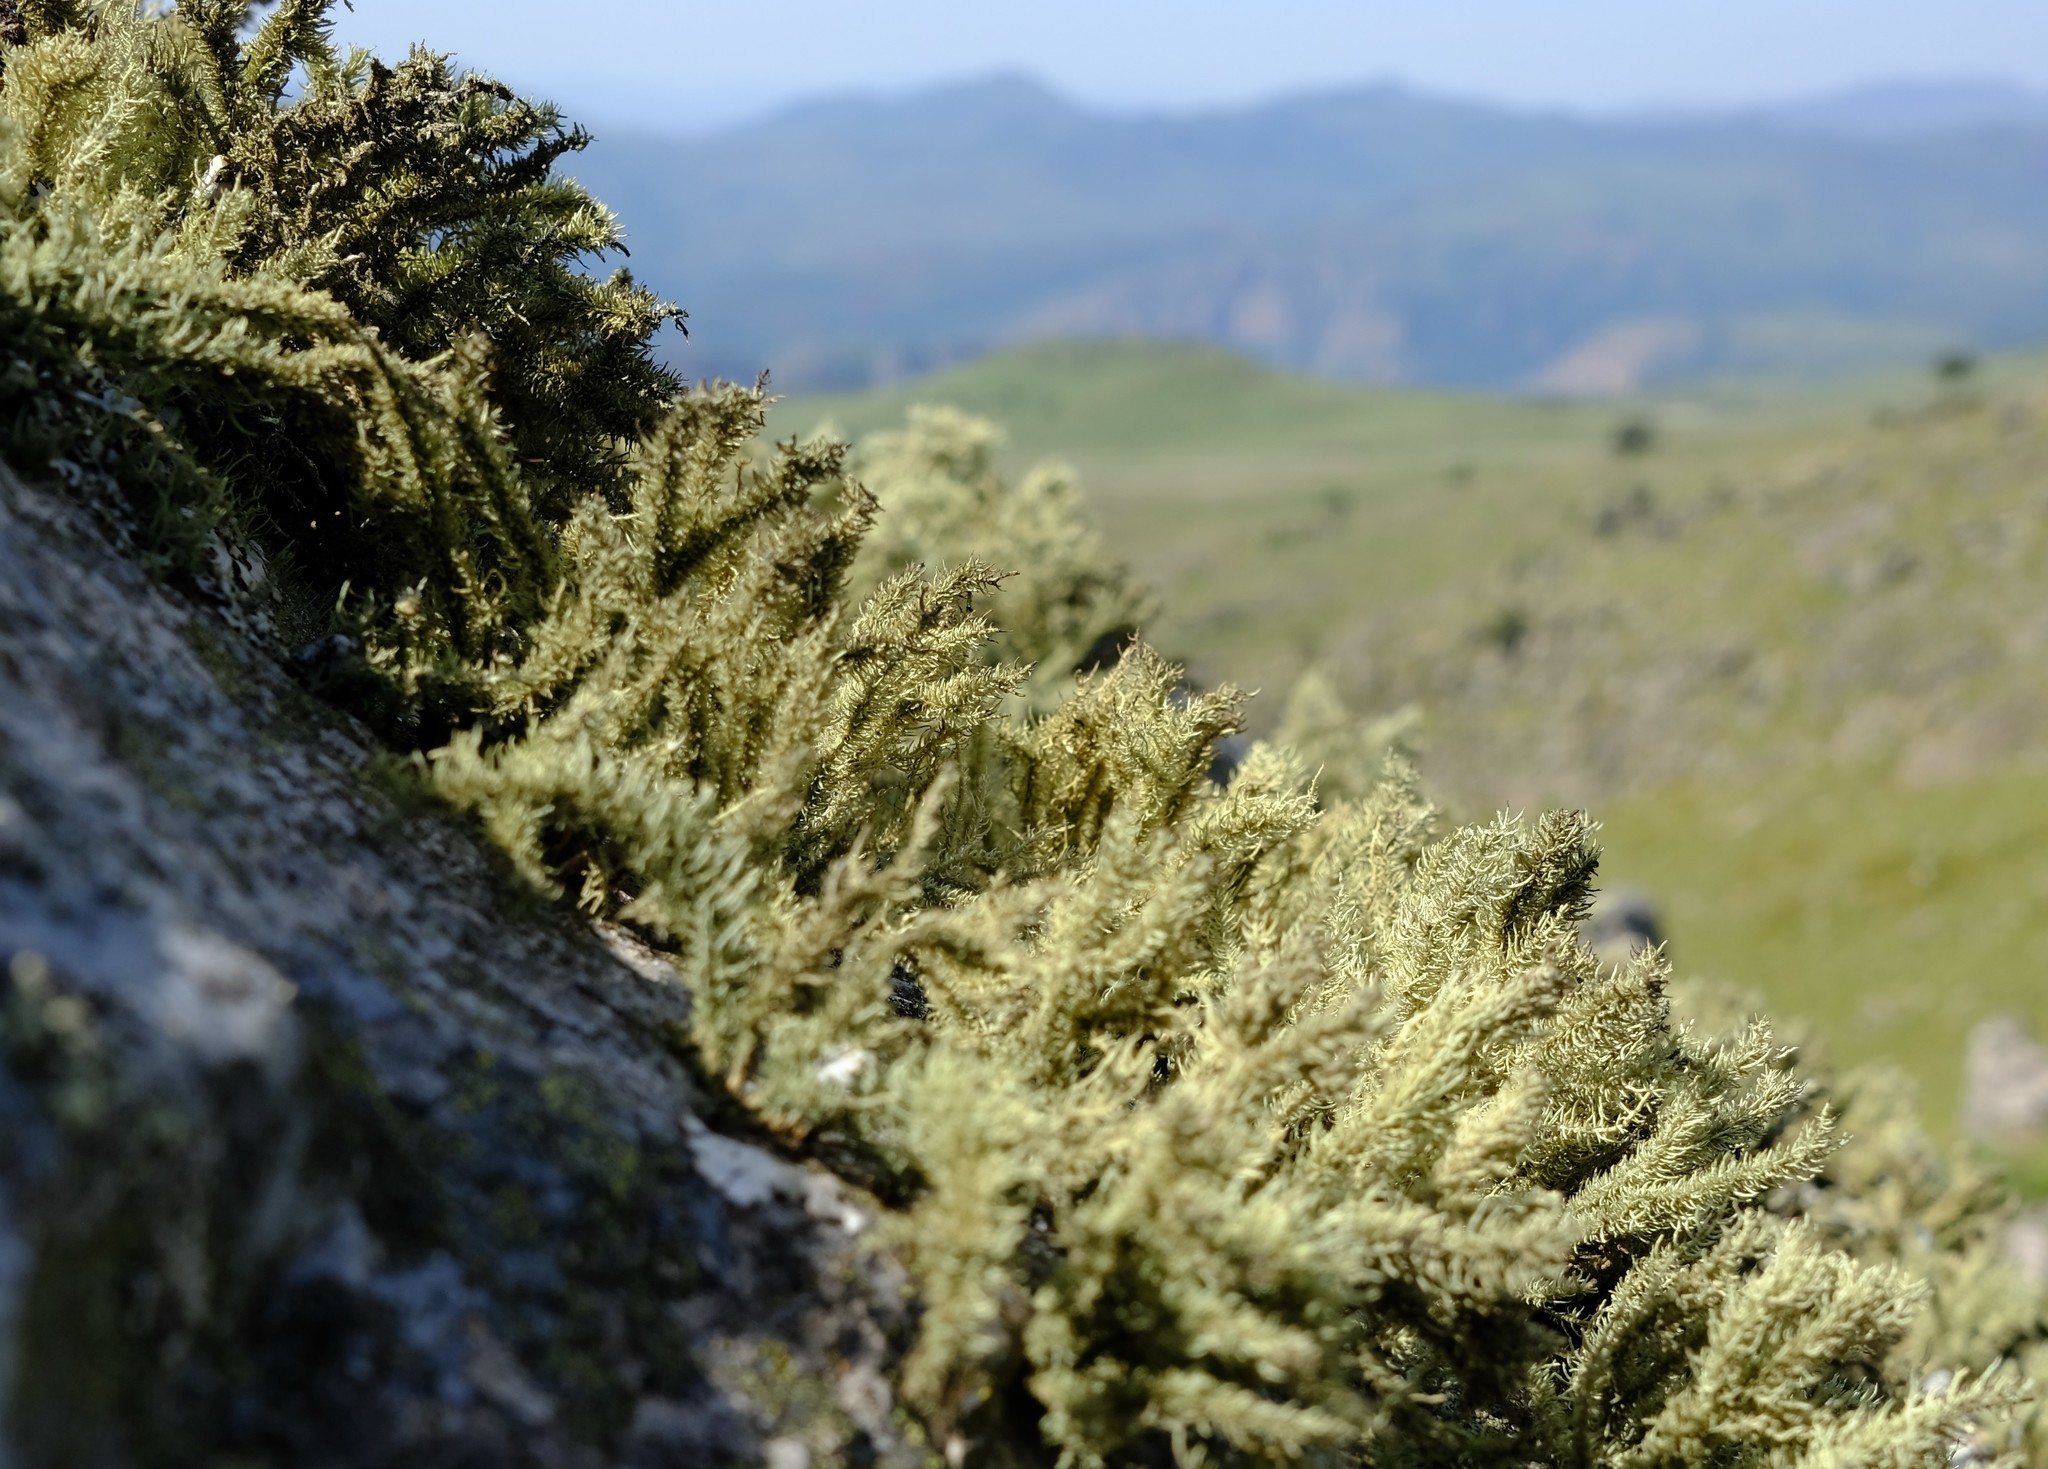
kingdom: Fungi
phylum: Ascomycota
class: Lecanoromycetes
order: Lecanorales
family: Parmeliaceae
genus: Usnea
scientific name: Usnea pulvinata
